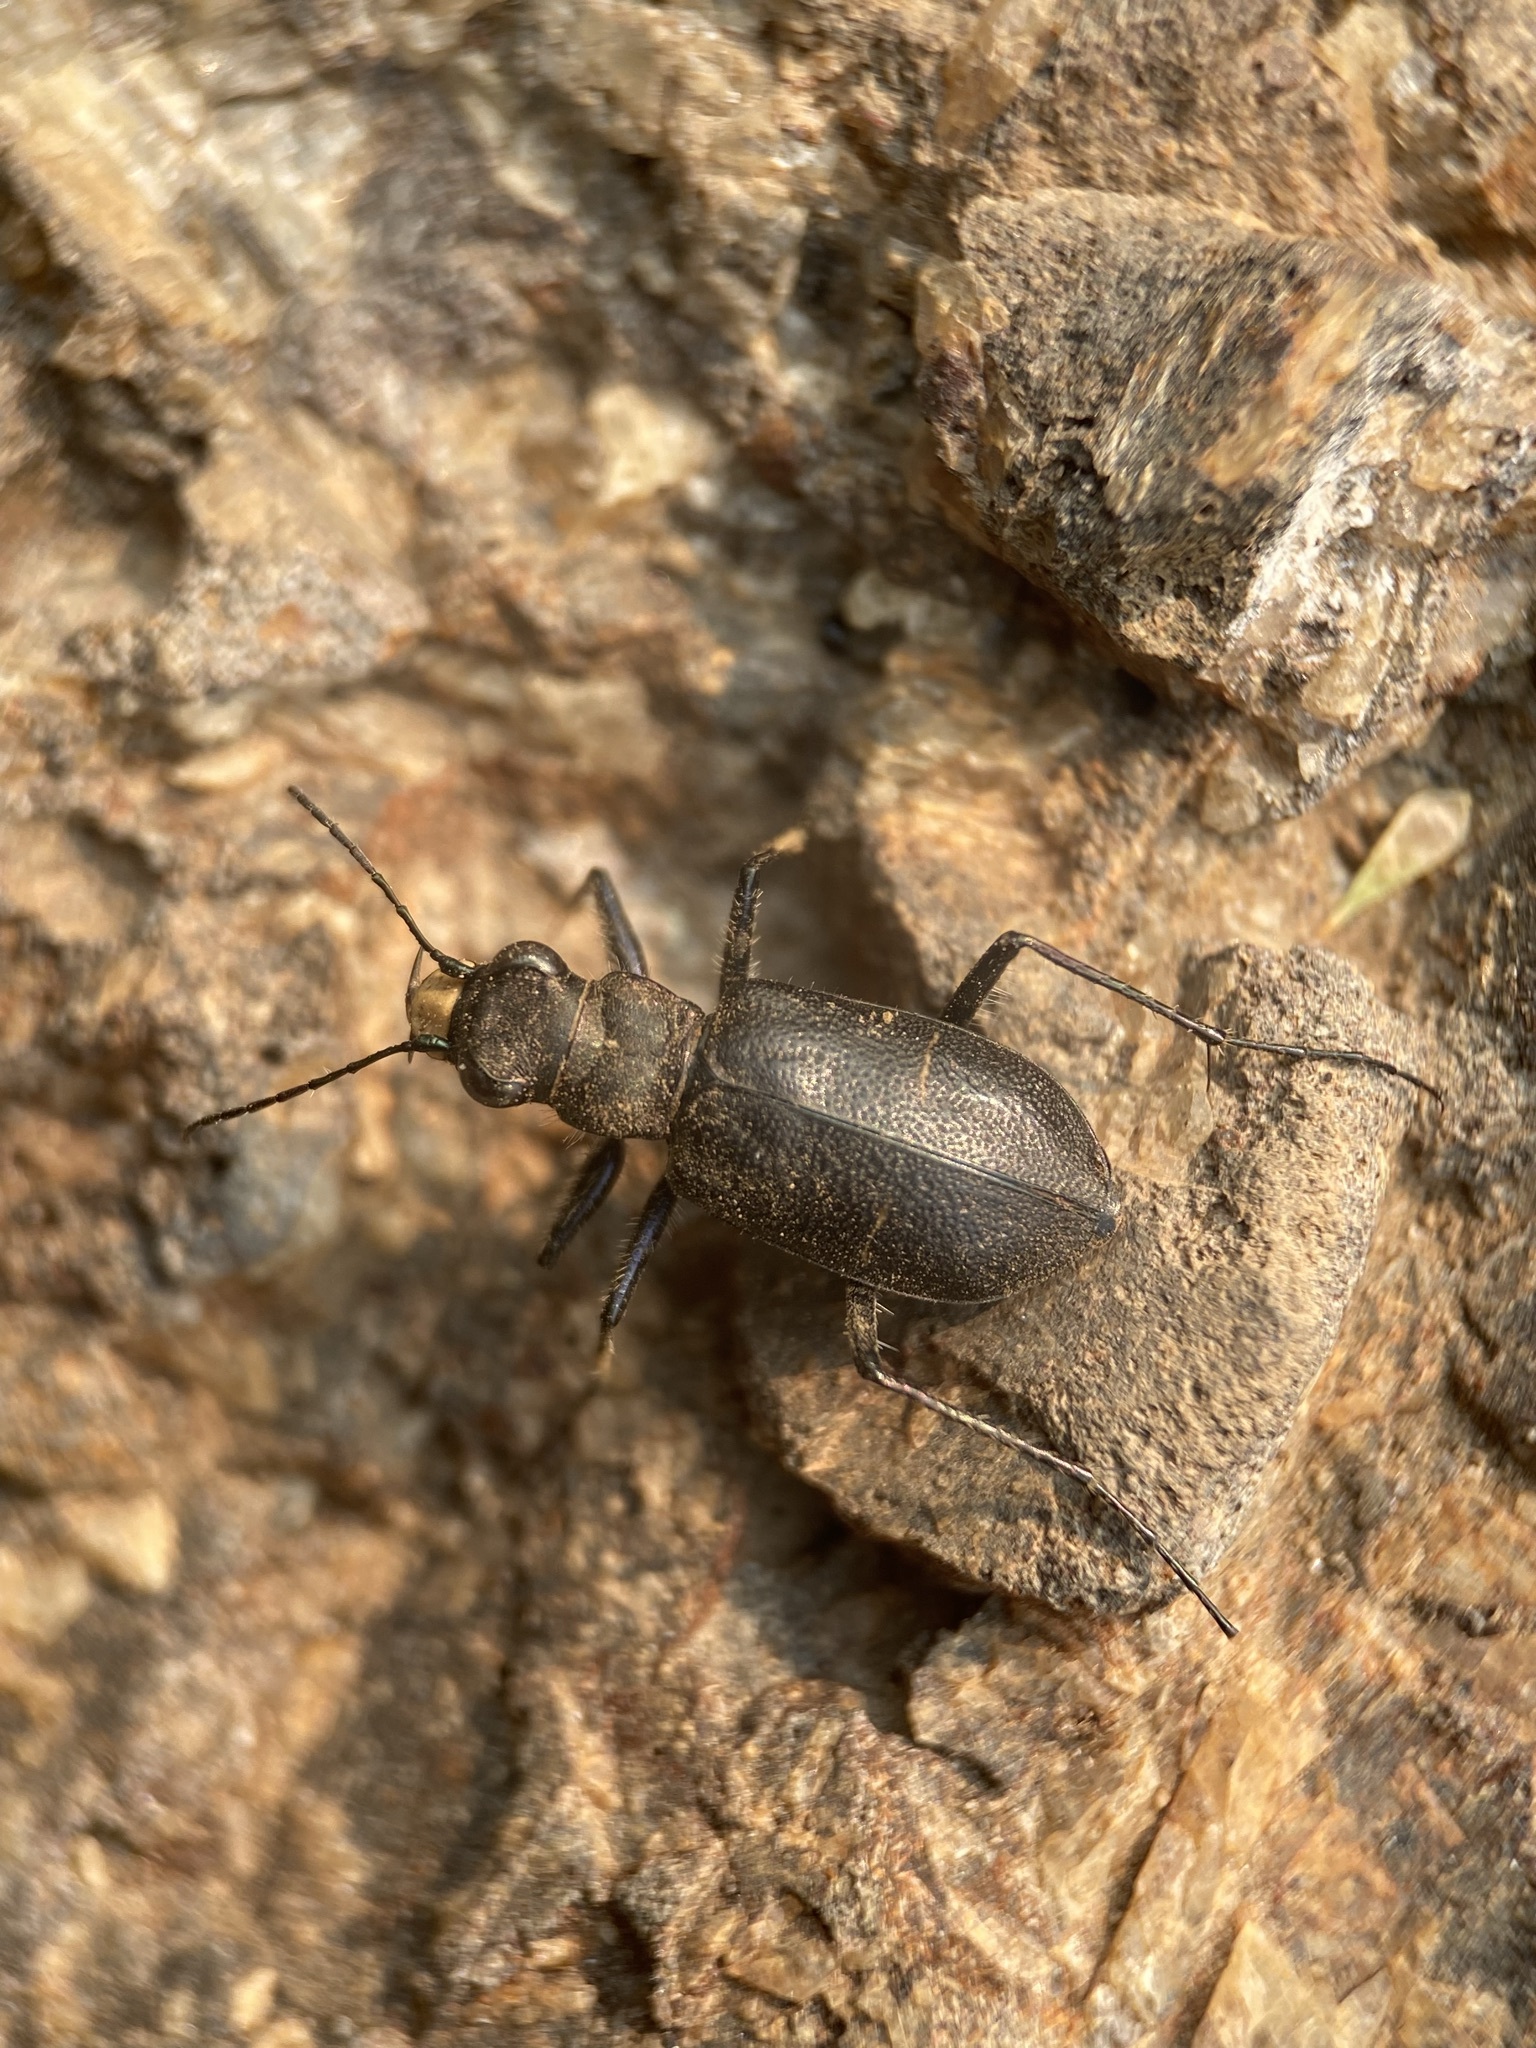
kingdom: Animalia
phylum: Arthropoda
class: Insecta
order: Coleoptera
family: Carabidae
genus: Cicindela
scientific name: Cicindela longilabris
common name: Boreal long-lipped tiger beetle
